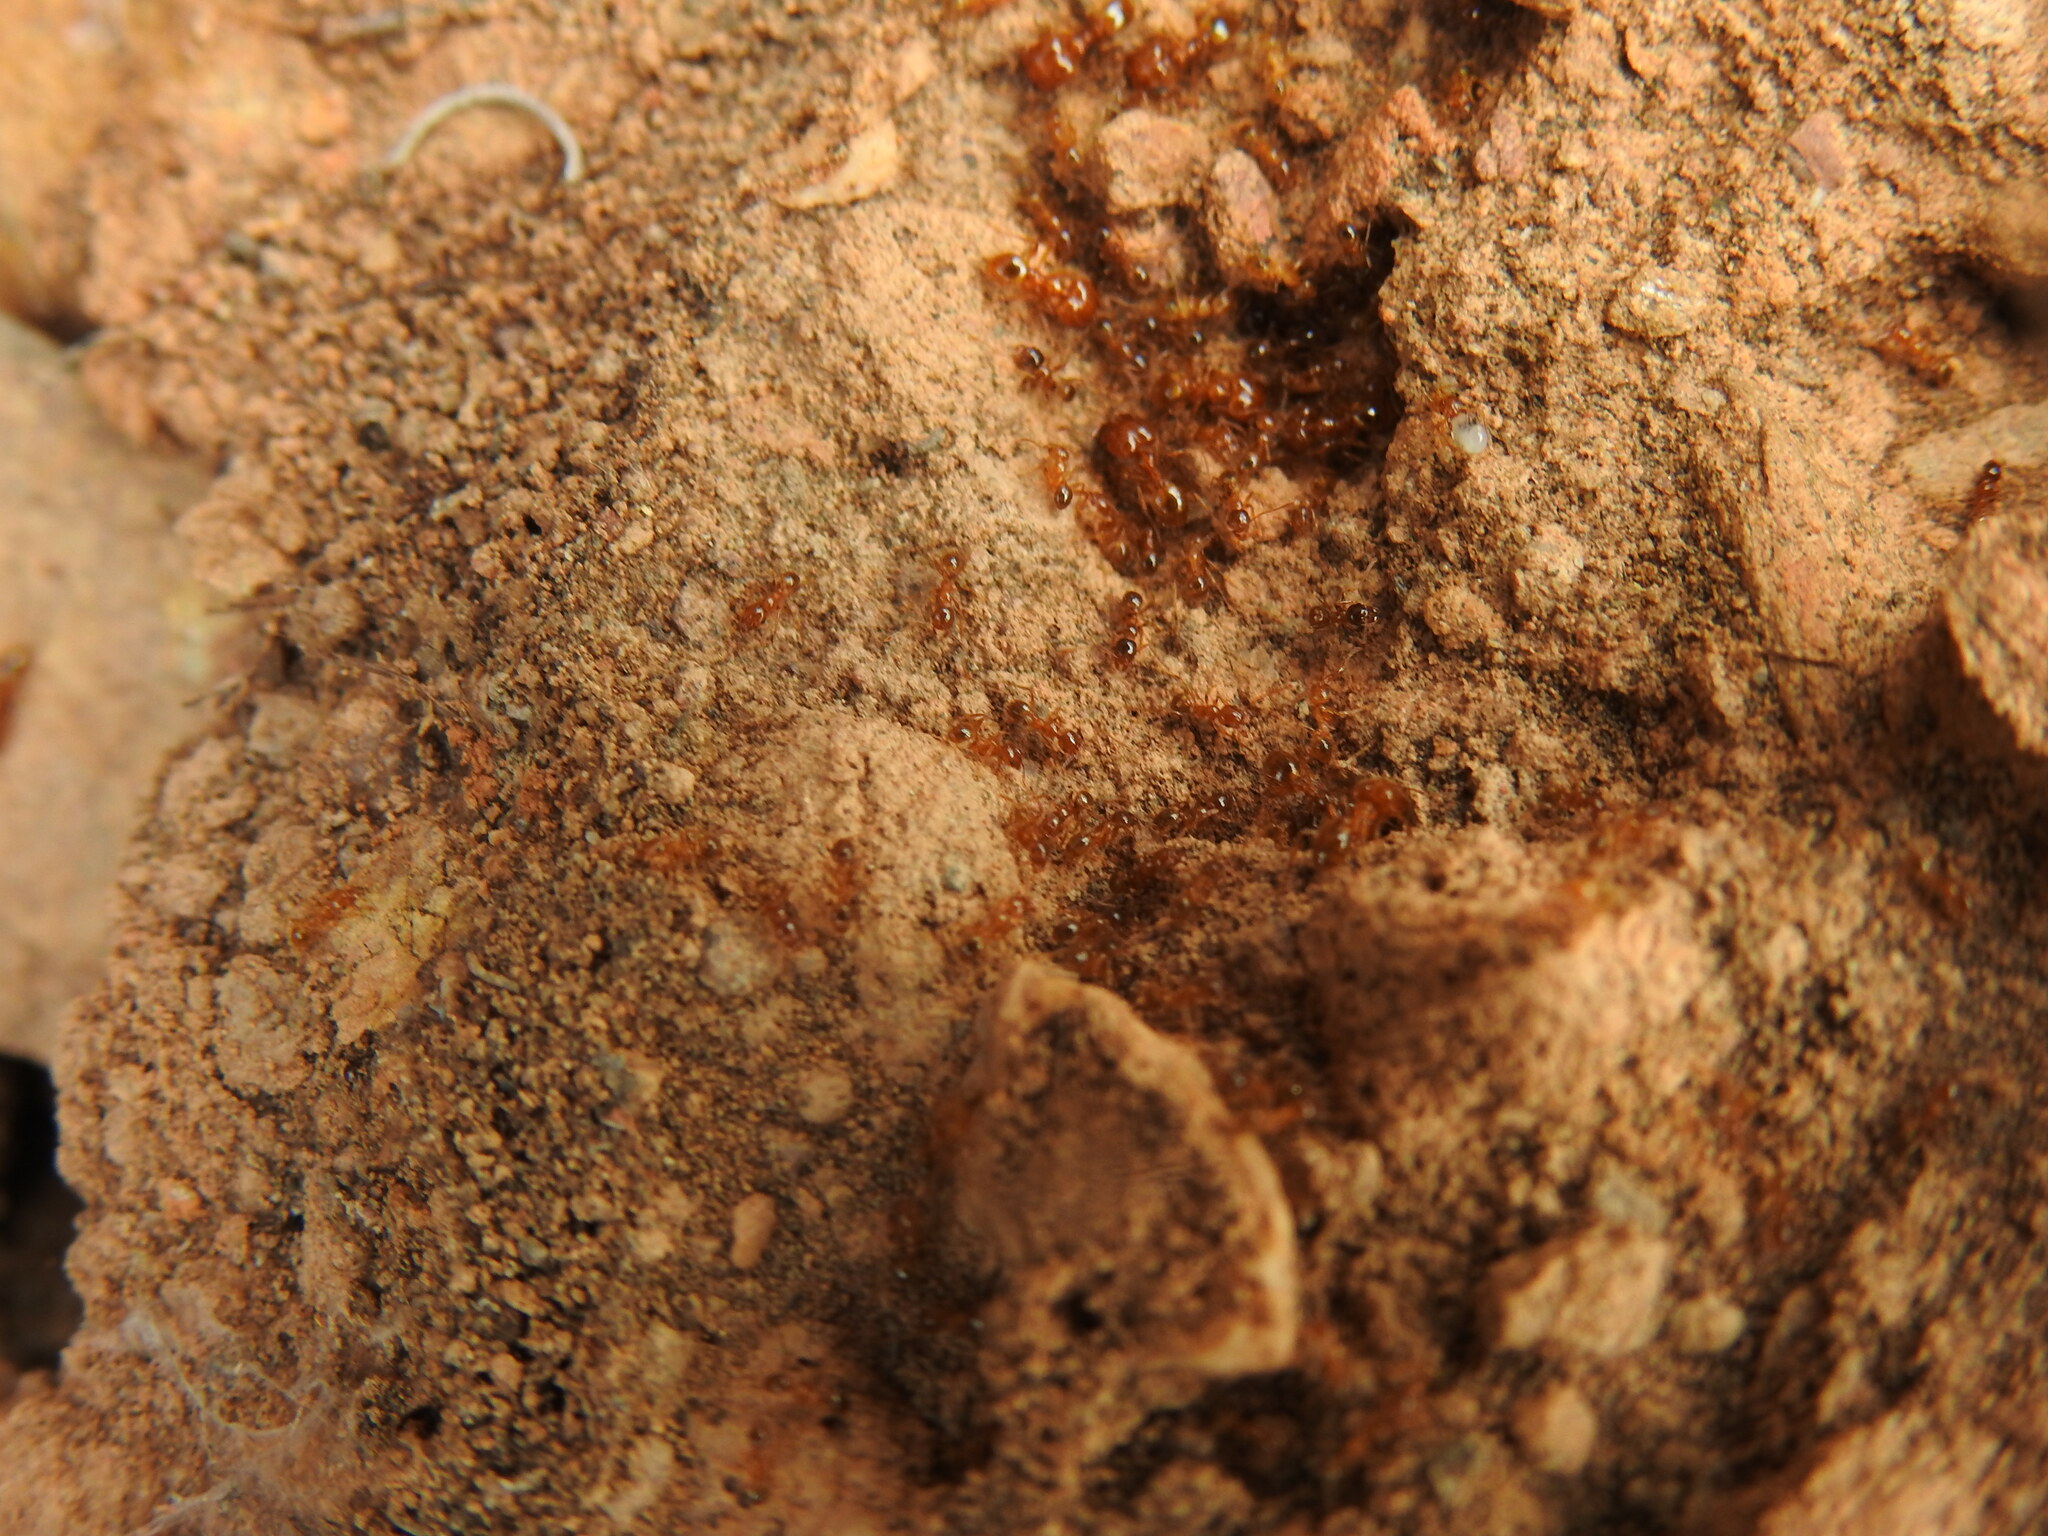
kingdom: Animalia
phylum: Arthropoda
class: Insecta
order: Hymenoptera
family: Formicidae
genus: Pheidole
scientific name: Pheidole pallidula
